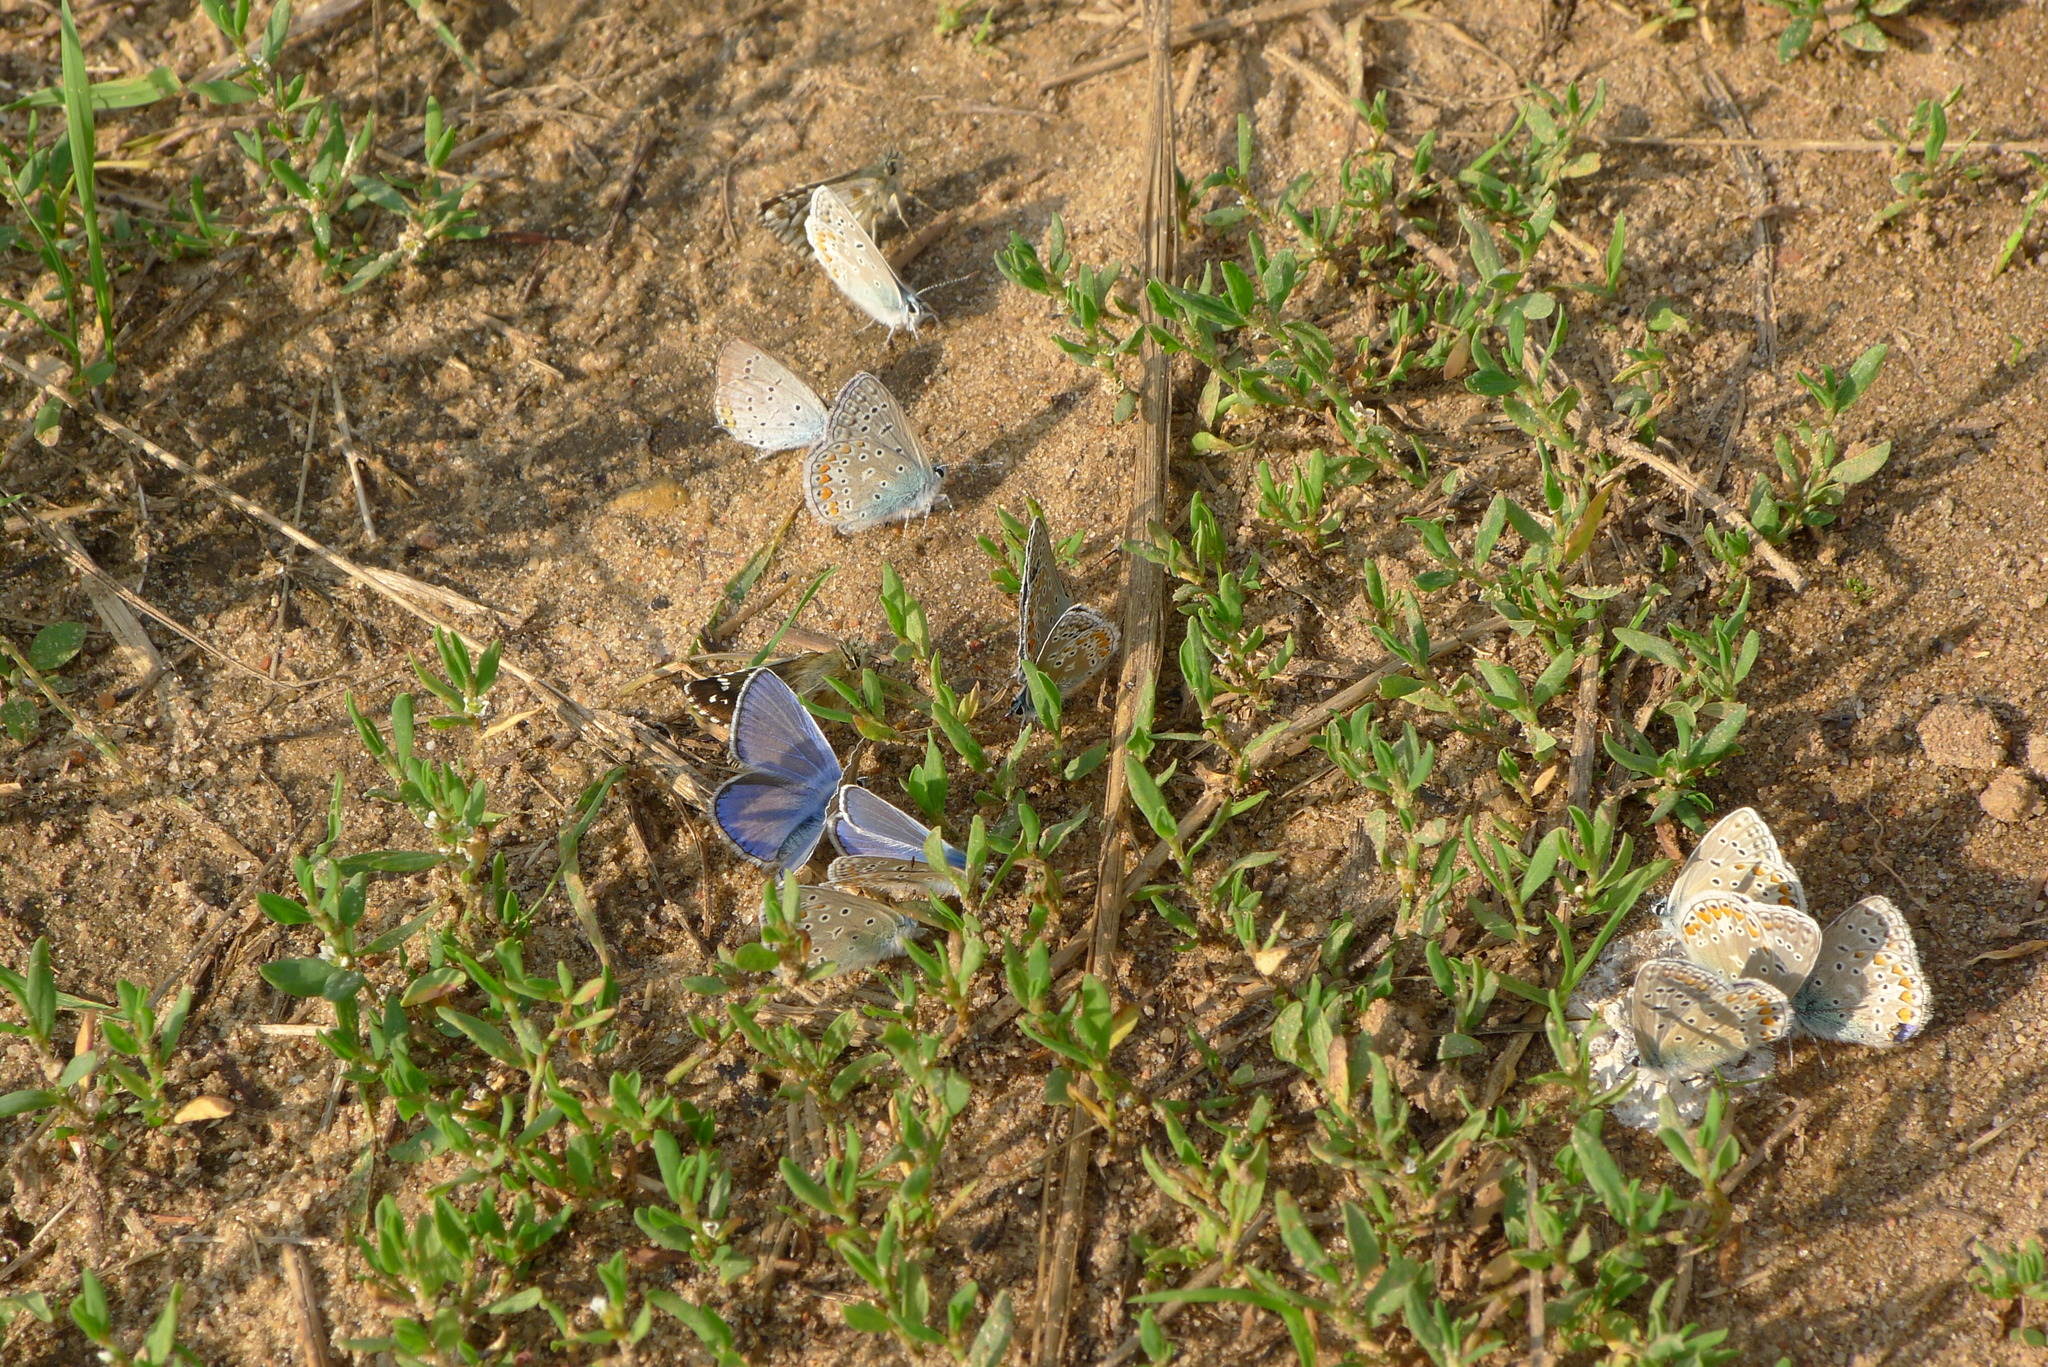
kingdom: Animalia
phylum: Arthropoda
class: Insecta
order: Lepidoptera
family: Lycaenidae
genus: Polyommatus
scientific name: Polyommatus icarus
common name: Common blue
